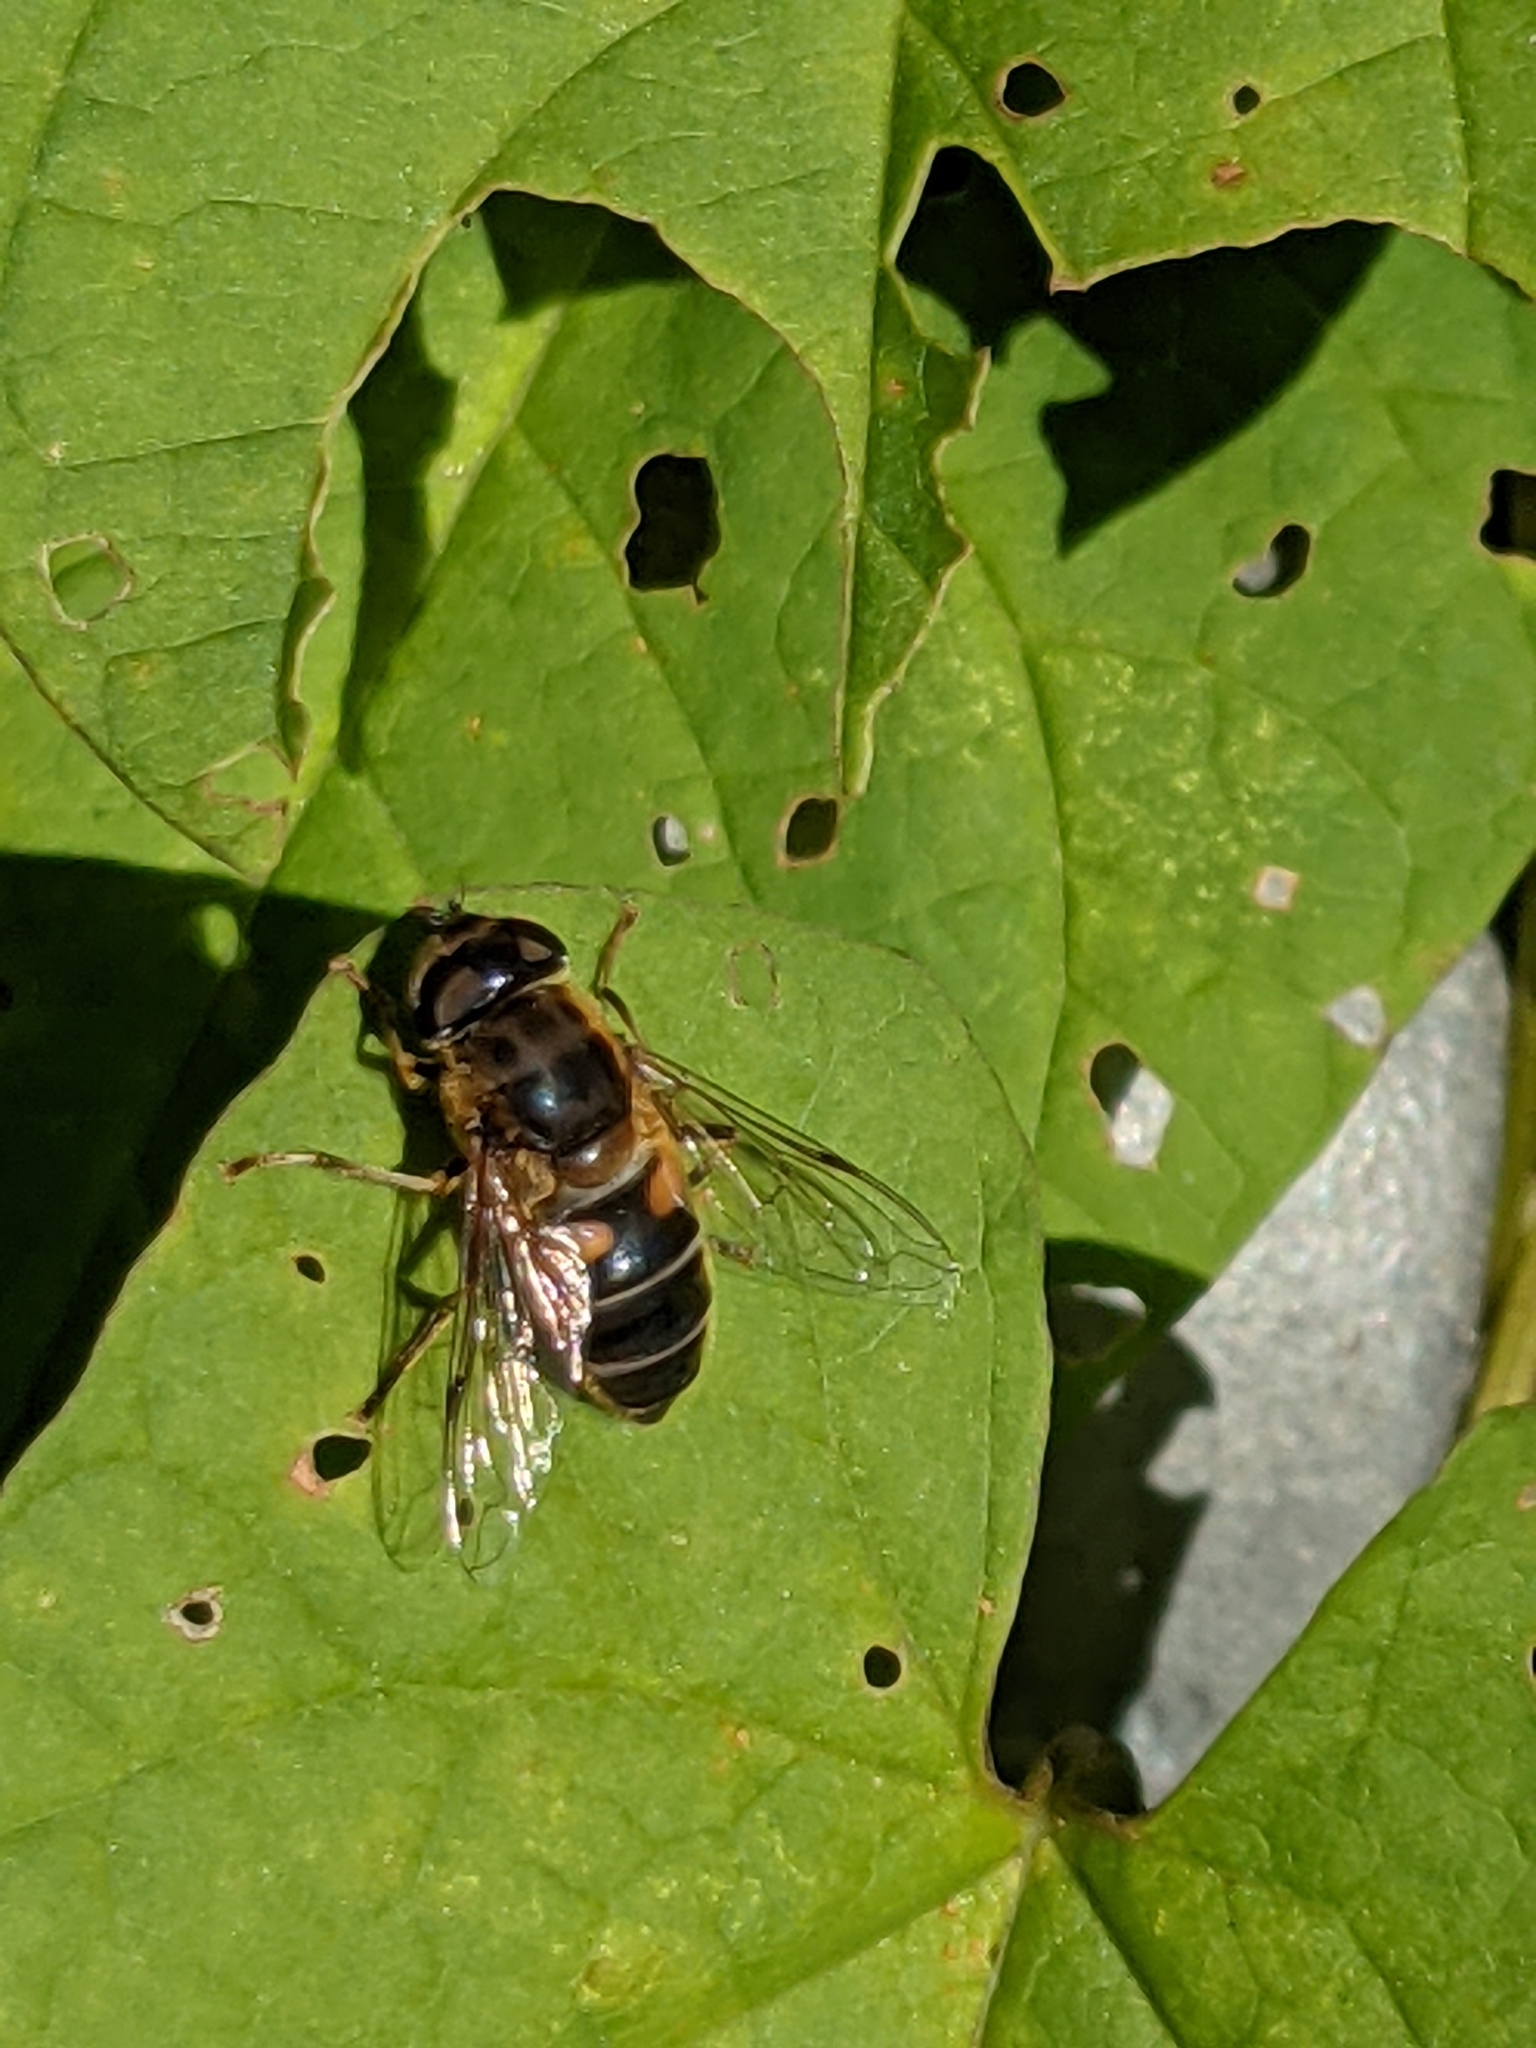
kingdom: Animalia
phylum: Arthropoda
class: Insecta
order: Diptera
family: Syrphidae
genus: Eristalis
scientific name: Eristalis pertinax
